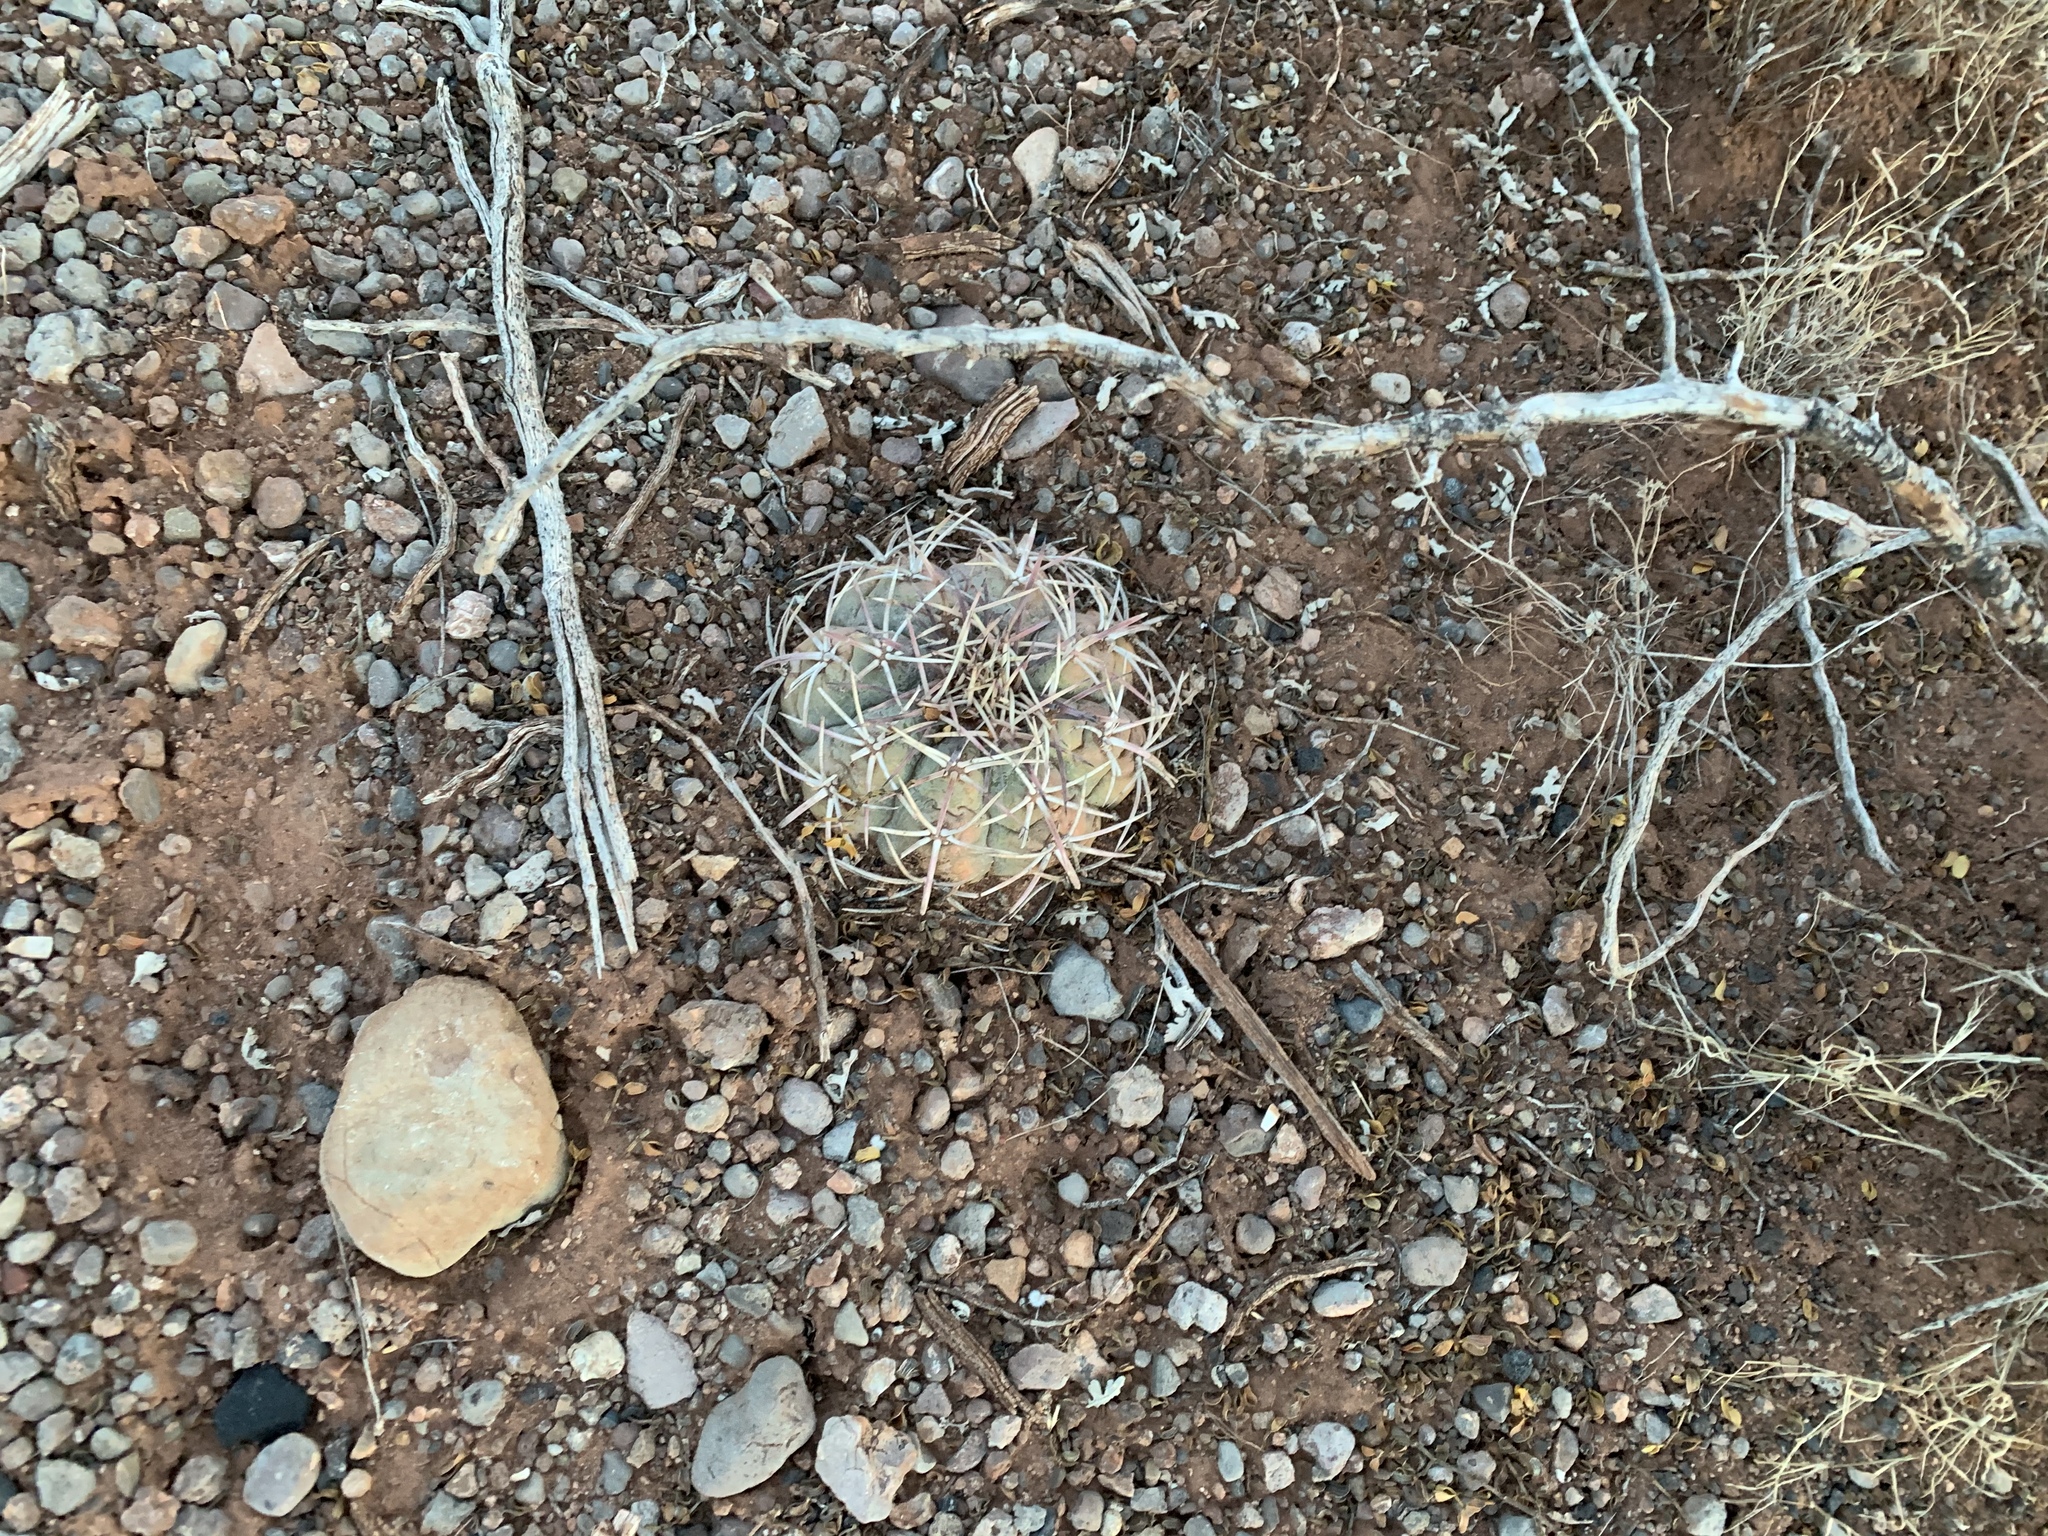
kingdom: Plantae
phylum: Tracheophyta
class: Magnoliopsida
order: Caryophyllales
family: Cactaceae
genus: Echinocactus
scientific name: Echinocactus horizonthalonius
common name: Devilshead
